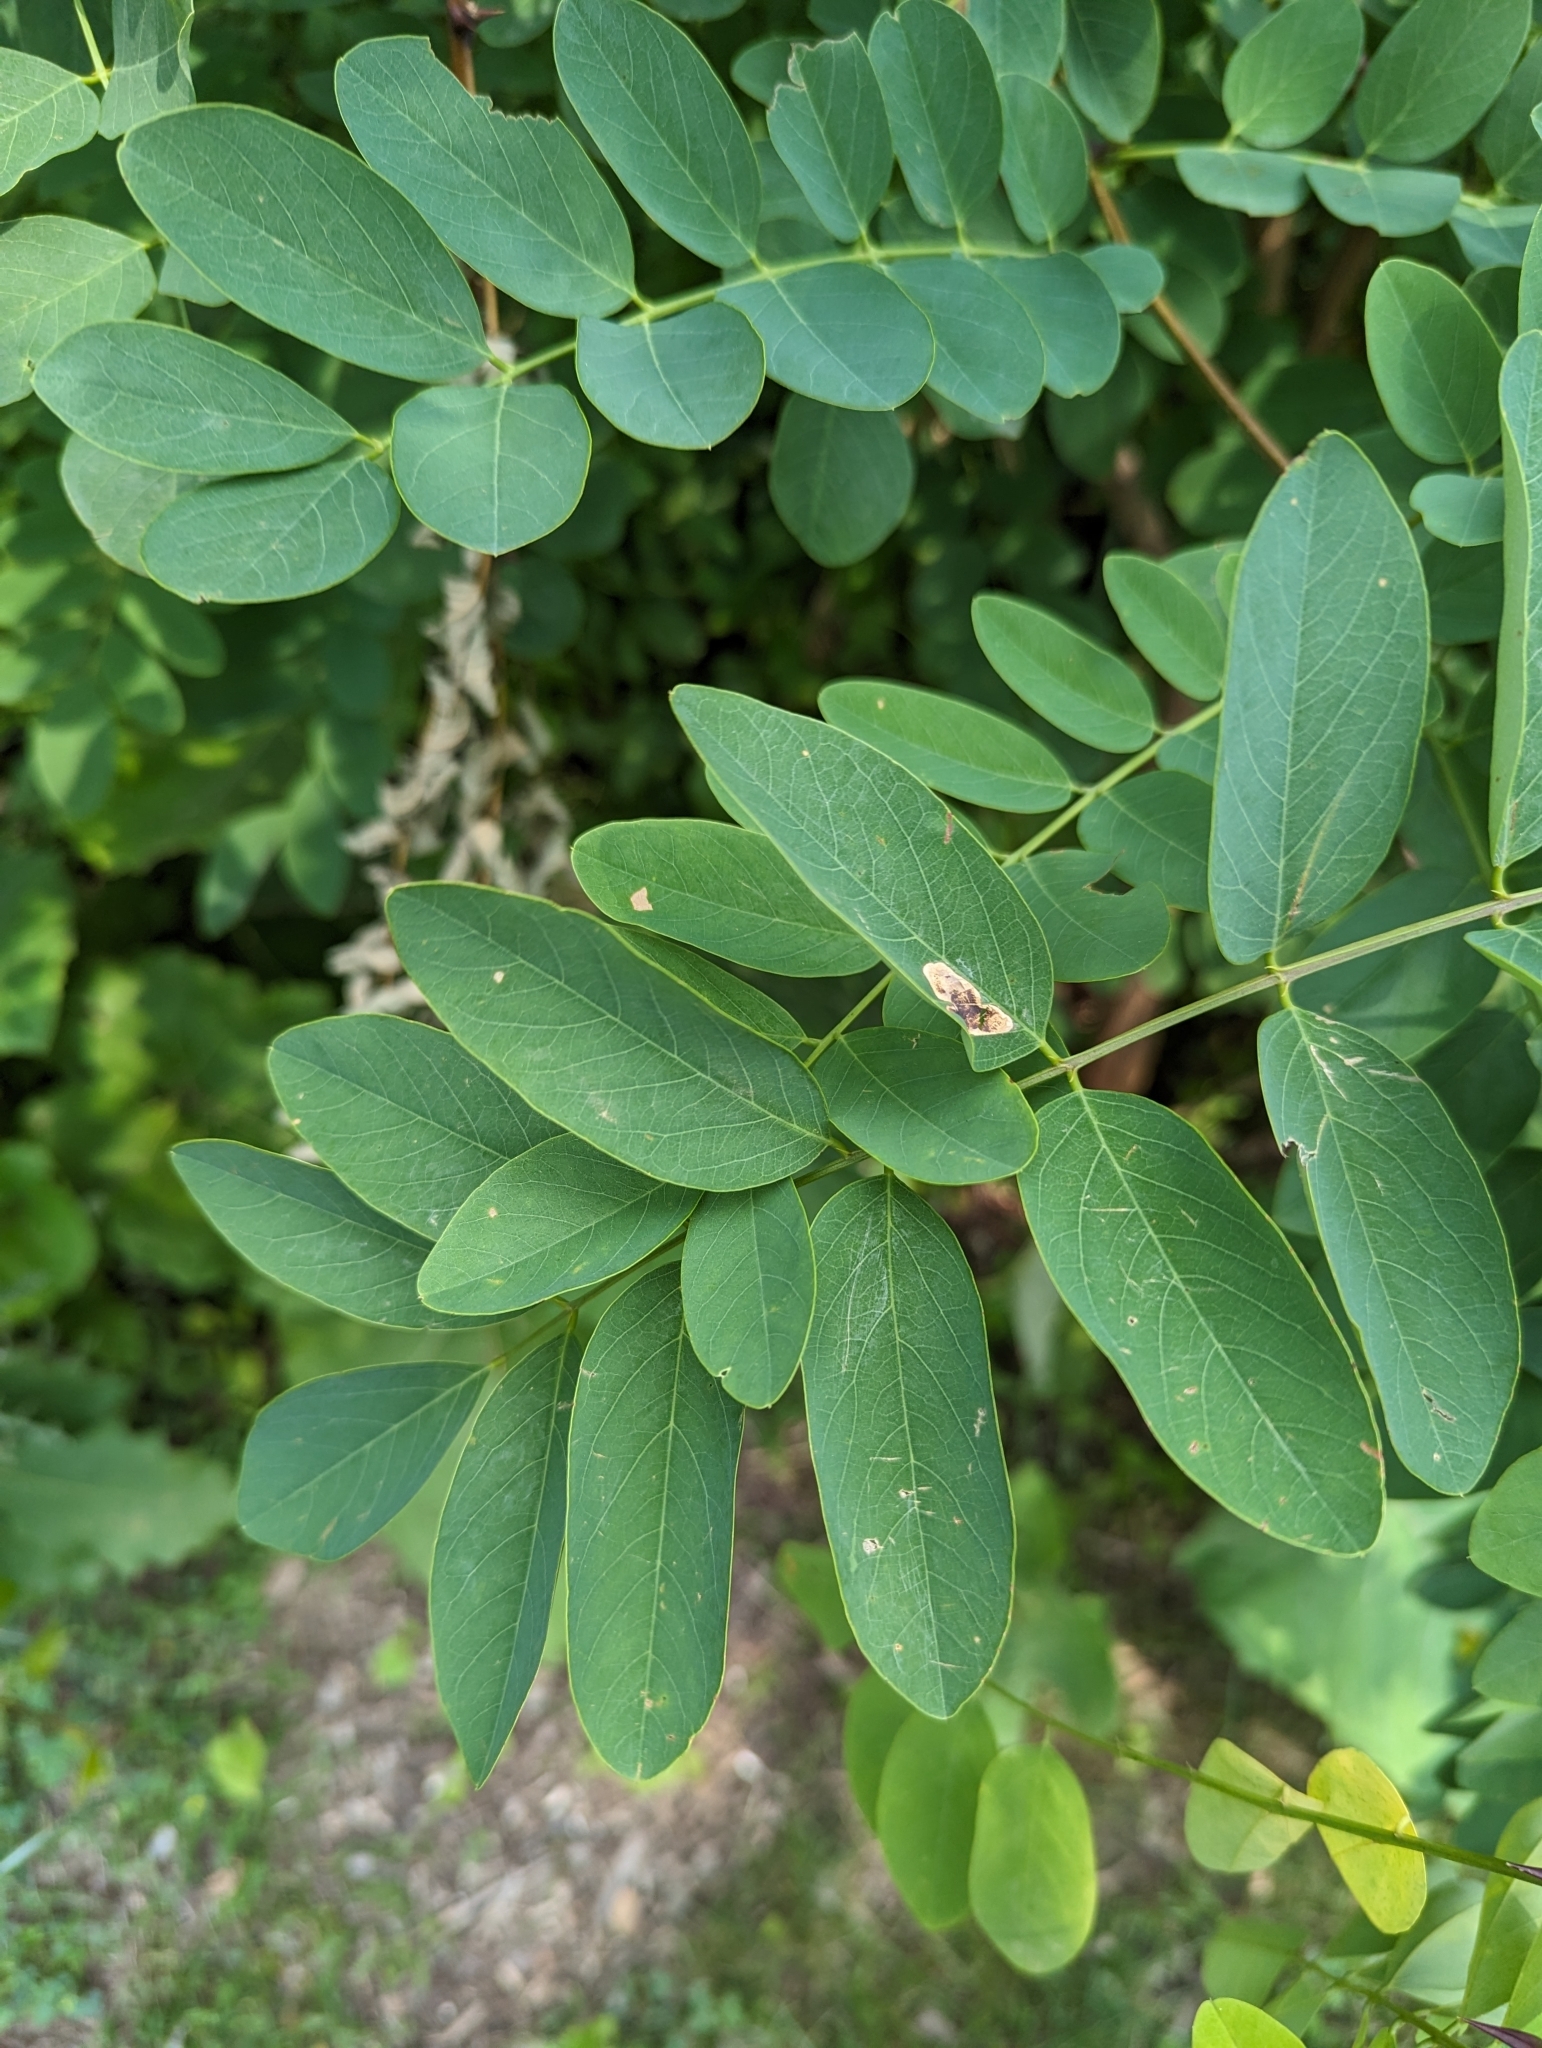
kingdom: Plantae
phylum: Tracheophyta
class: Magnoliopsida
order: Fabales
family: Fabaceae
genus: Robinia
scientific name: Robinia pseudoacacia
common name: Black locust
